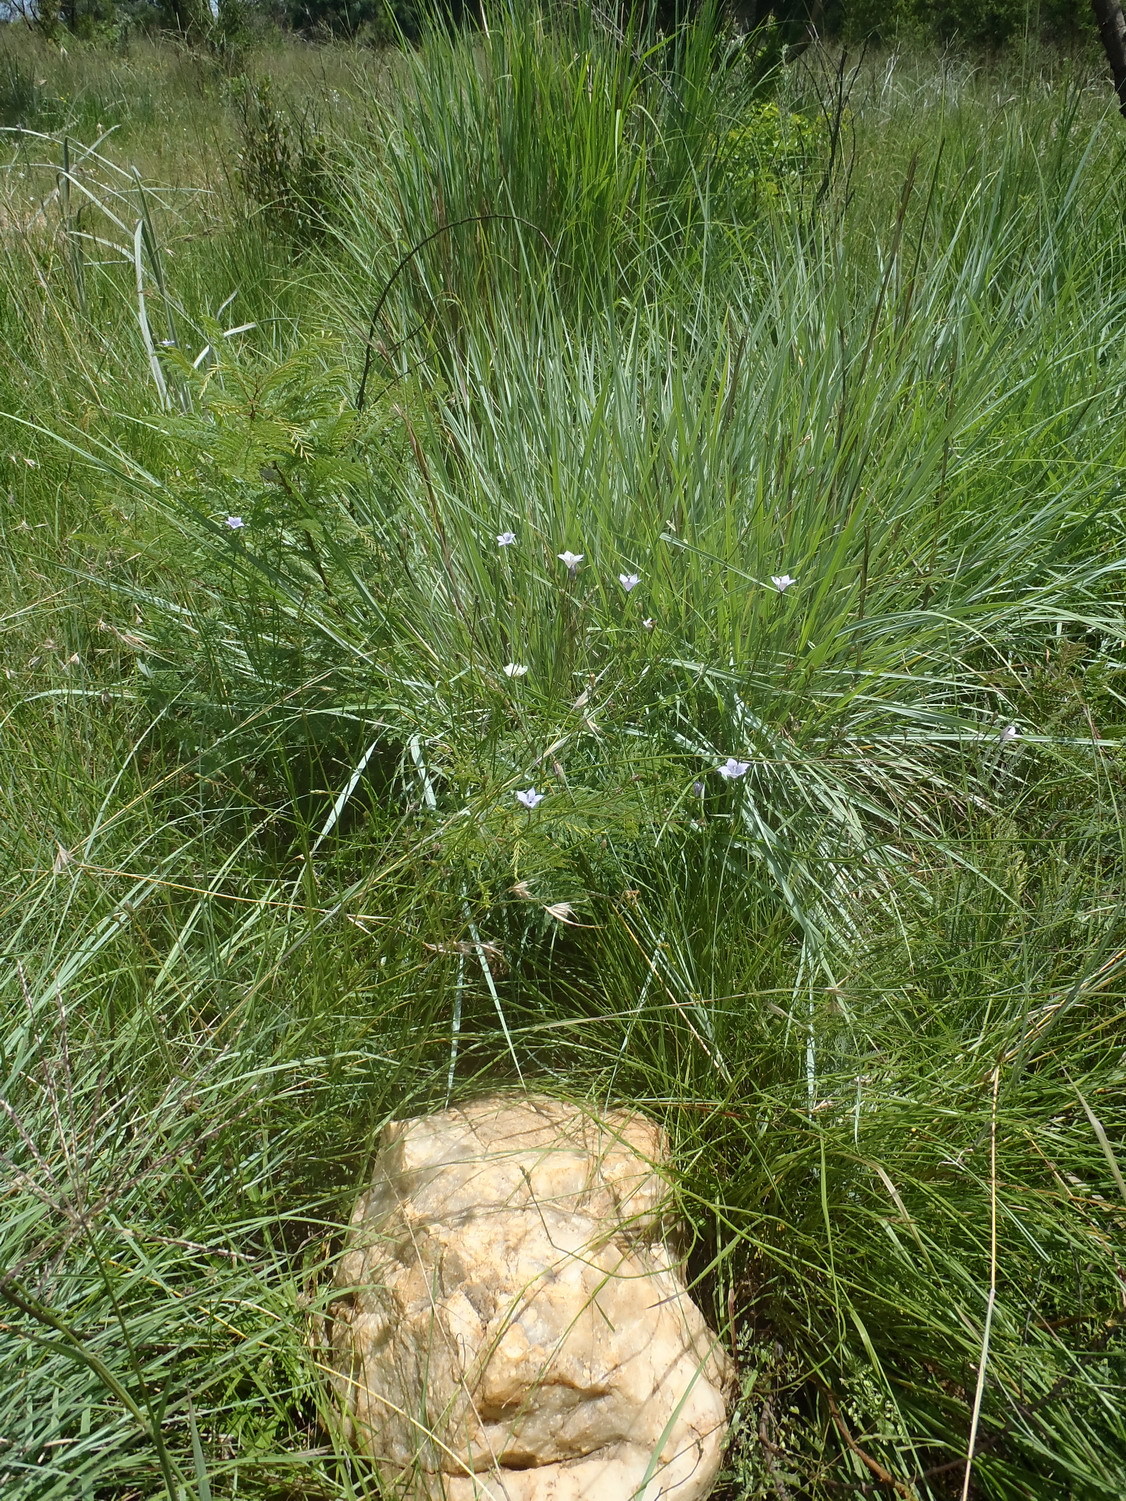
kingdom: Plantae
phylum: Tracheophyta
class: Magnoliopsida
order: Asterales
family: Campanulaceae
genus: Wahlenbergia
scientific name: Wahlenbergia undulata
